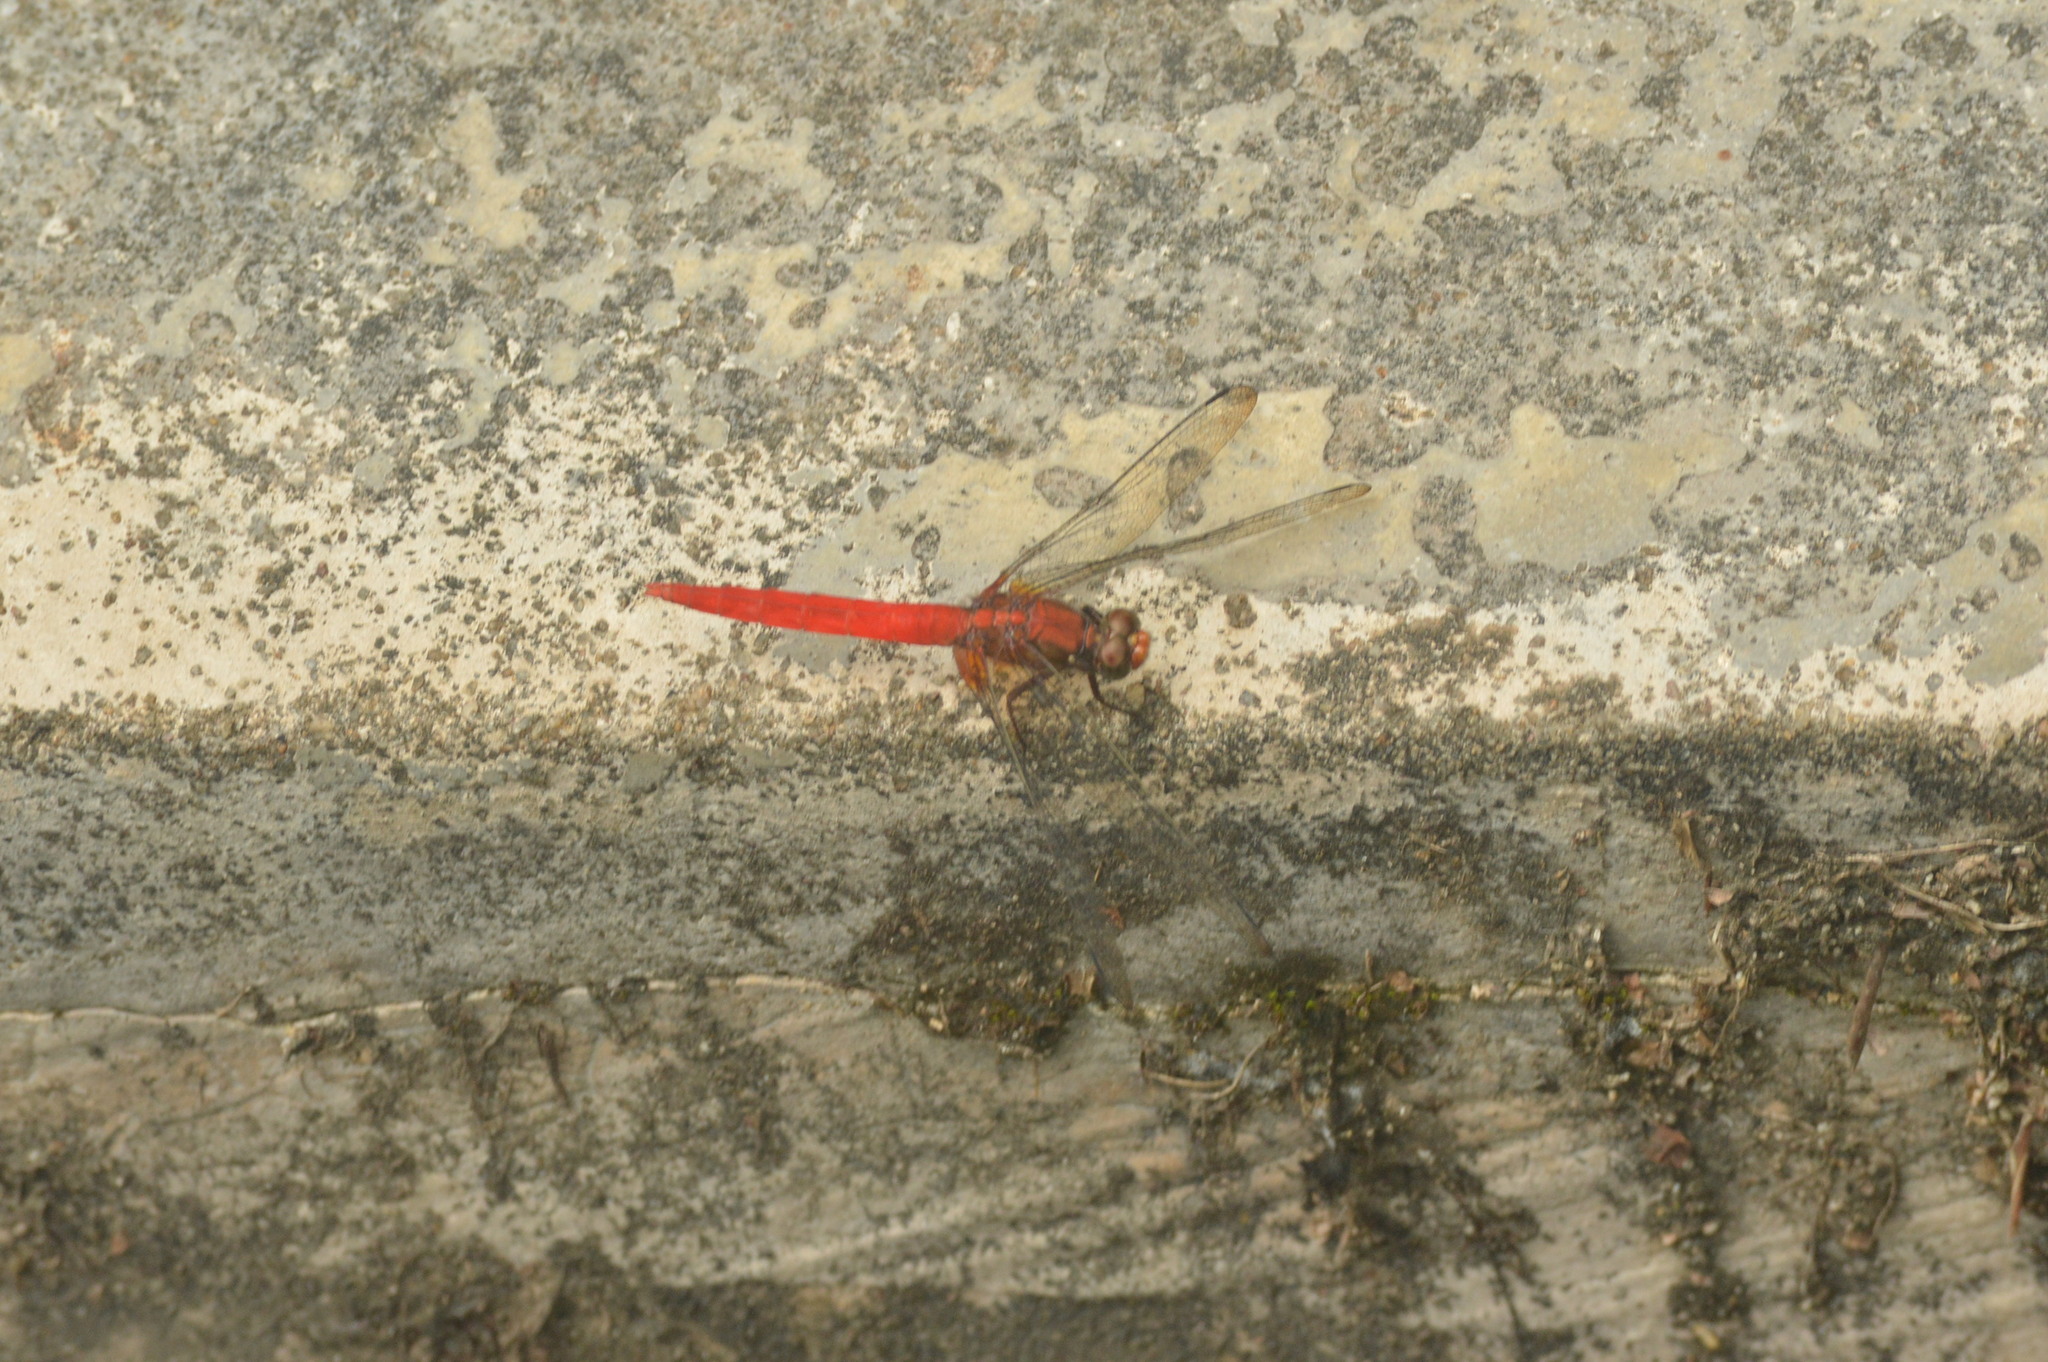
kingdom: Animalia
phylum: Arthropoda
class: Insecta
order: Odonata
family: Libellulidae
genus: Orthetrum
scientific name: Orthetrum testaceum
